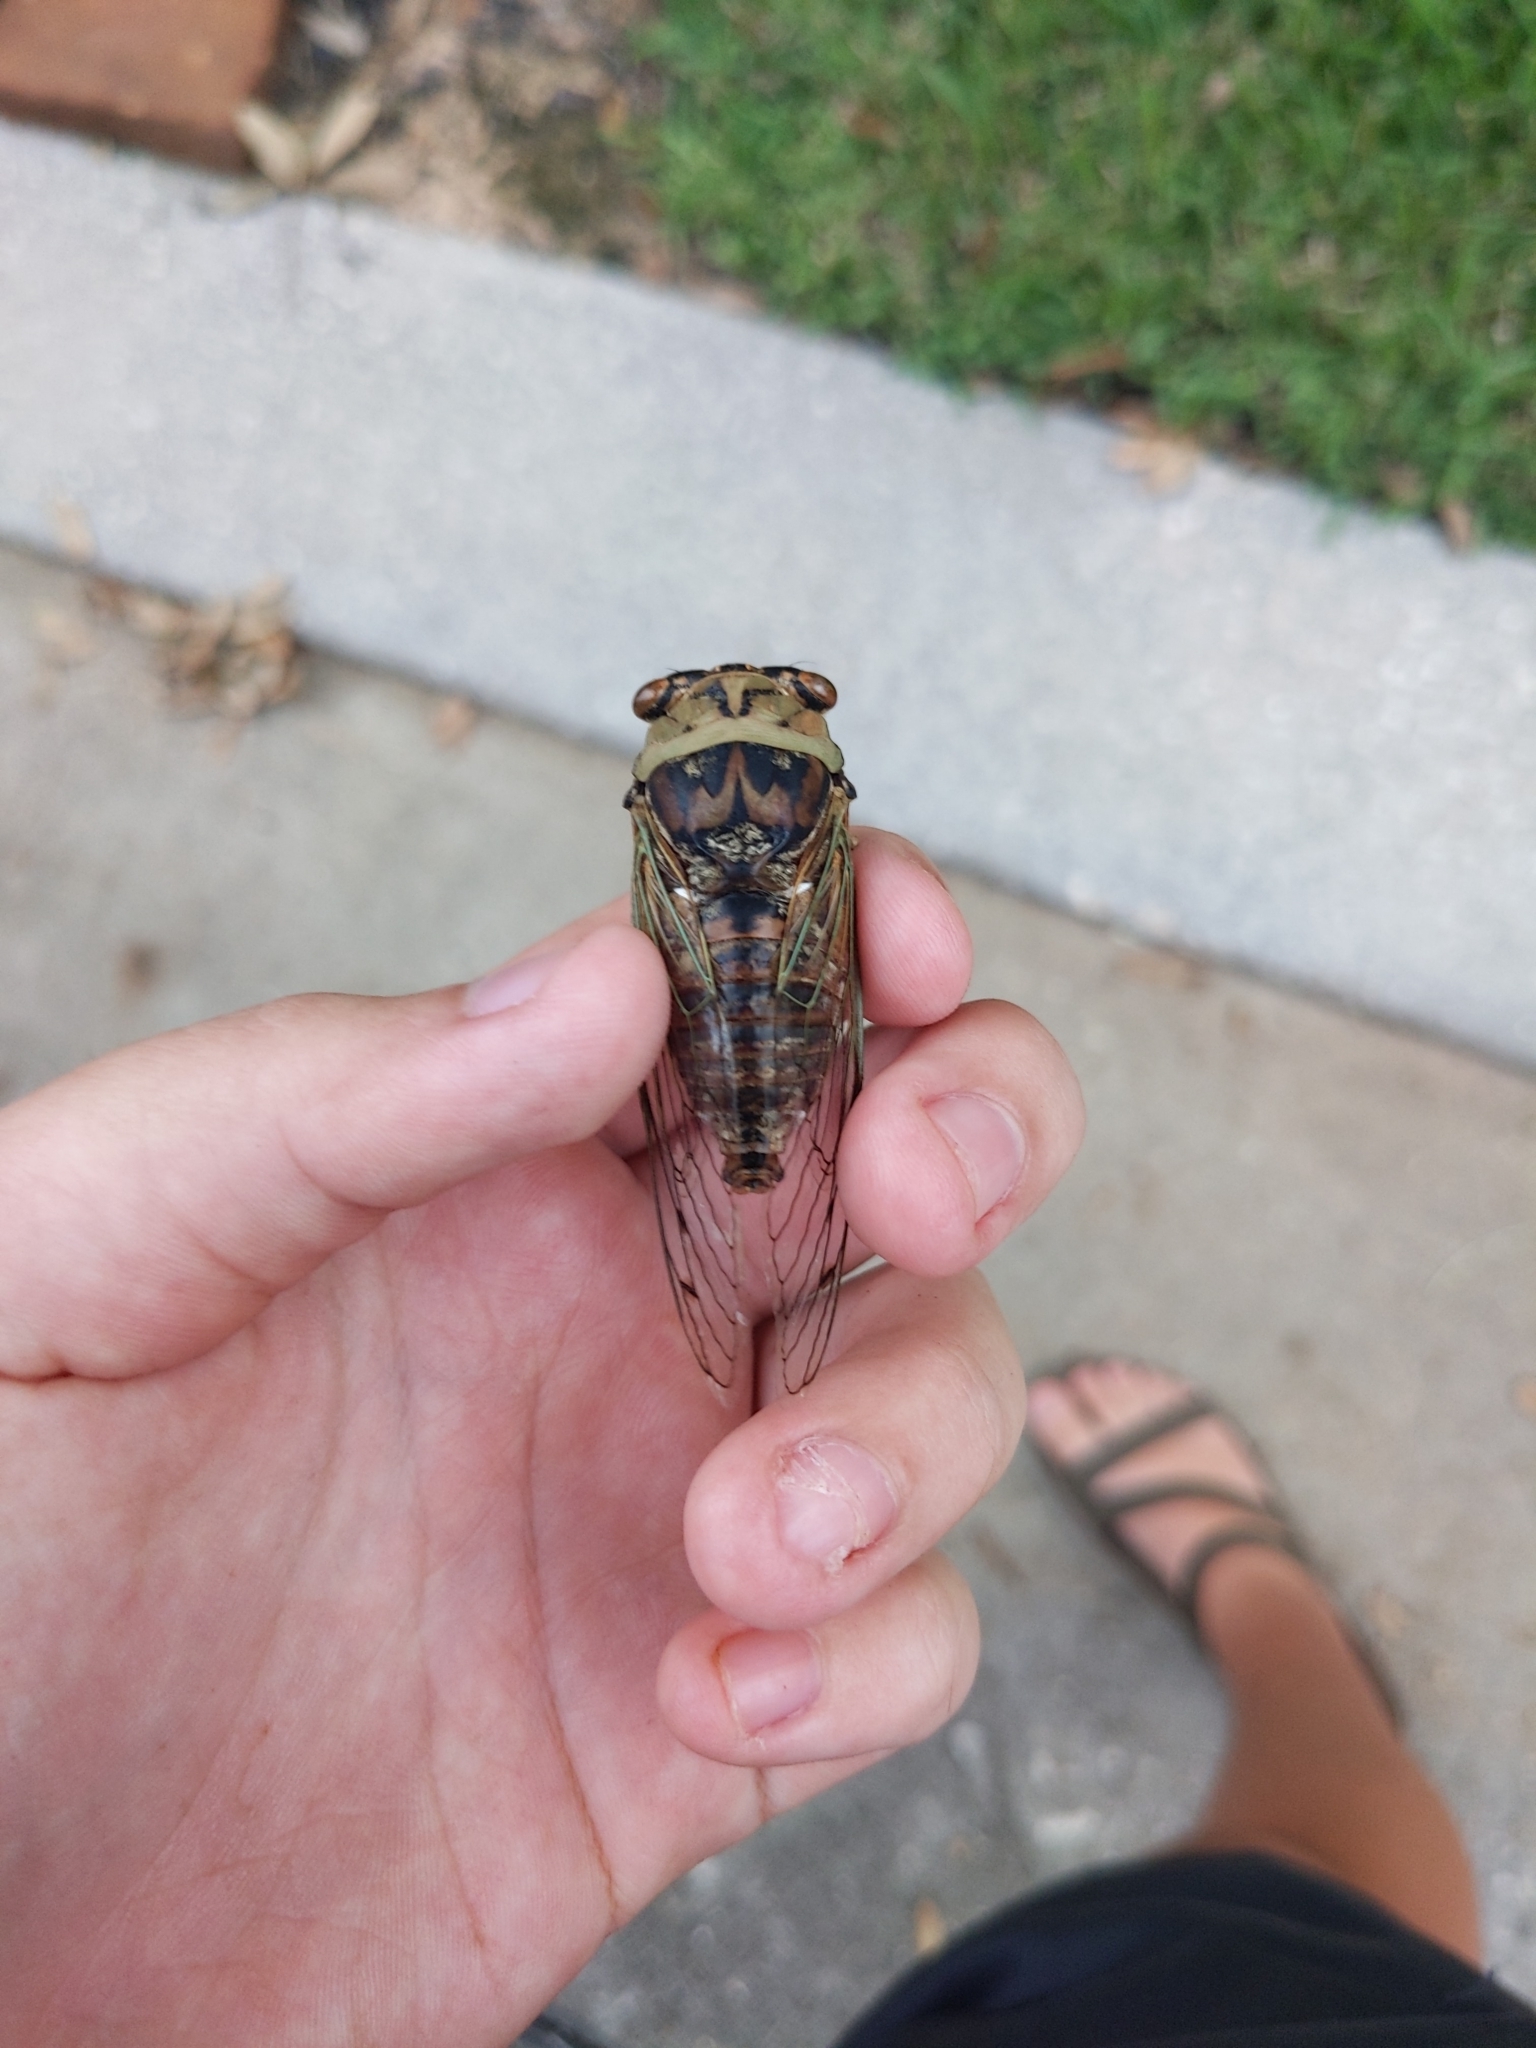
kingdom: Animalia
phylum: Arthropoda
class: Insecta
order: Hemiptera
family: Cicadidae
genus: Megatibicen
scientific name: Megatibicen resh
